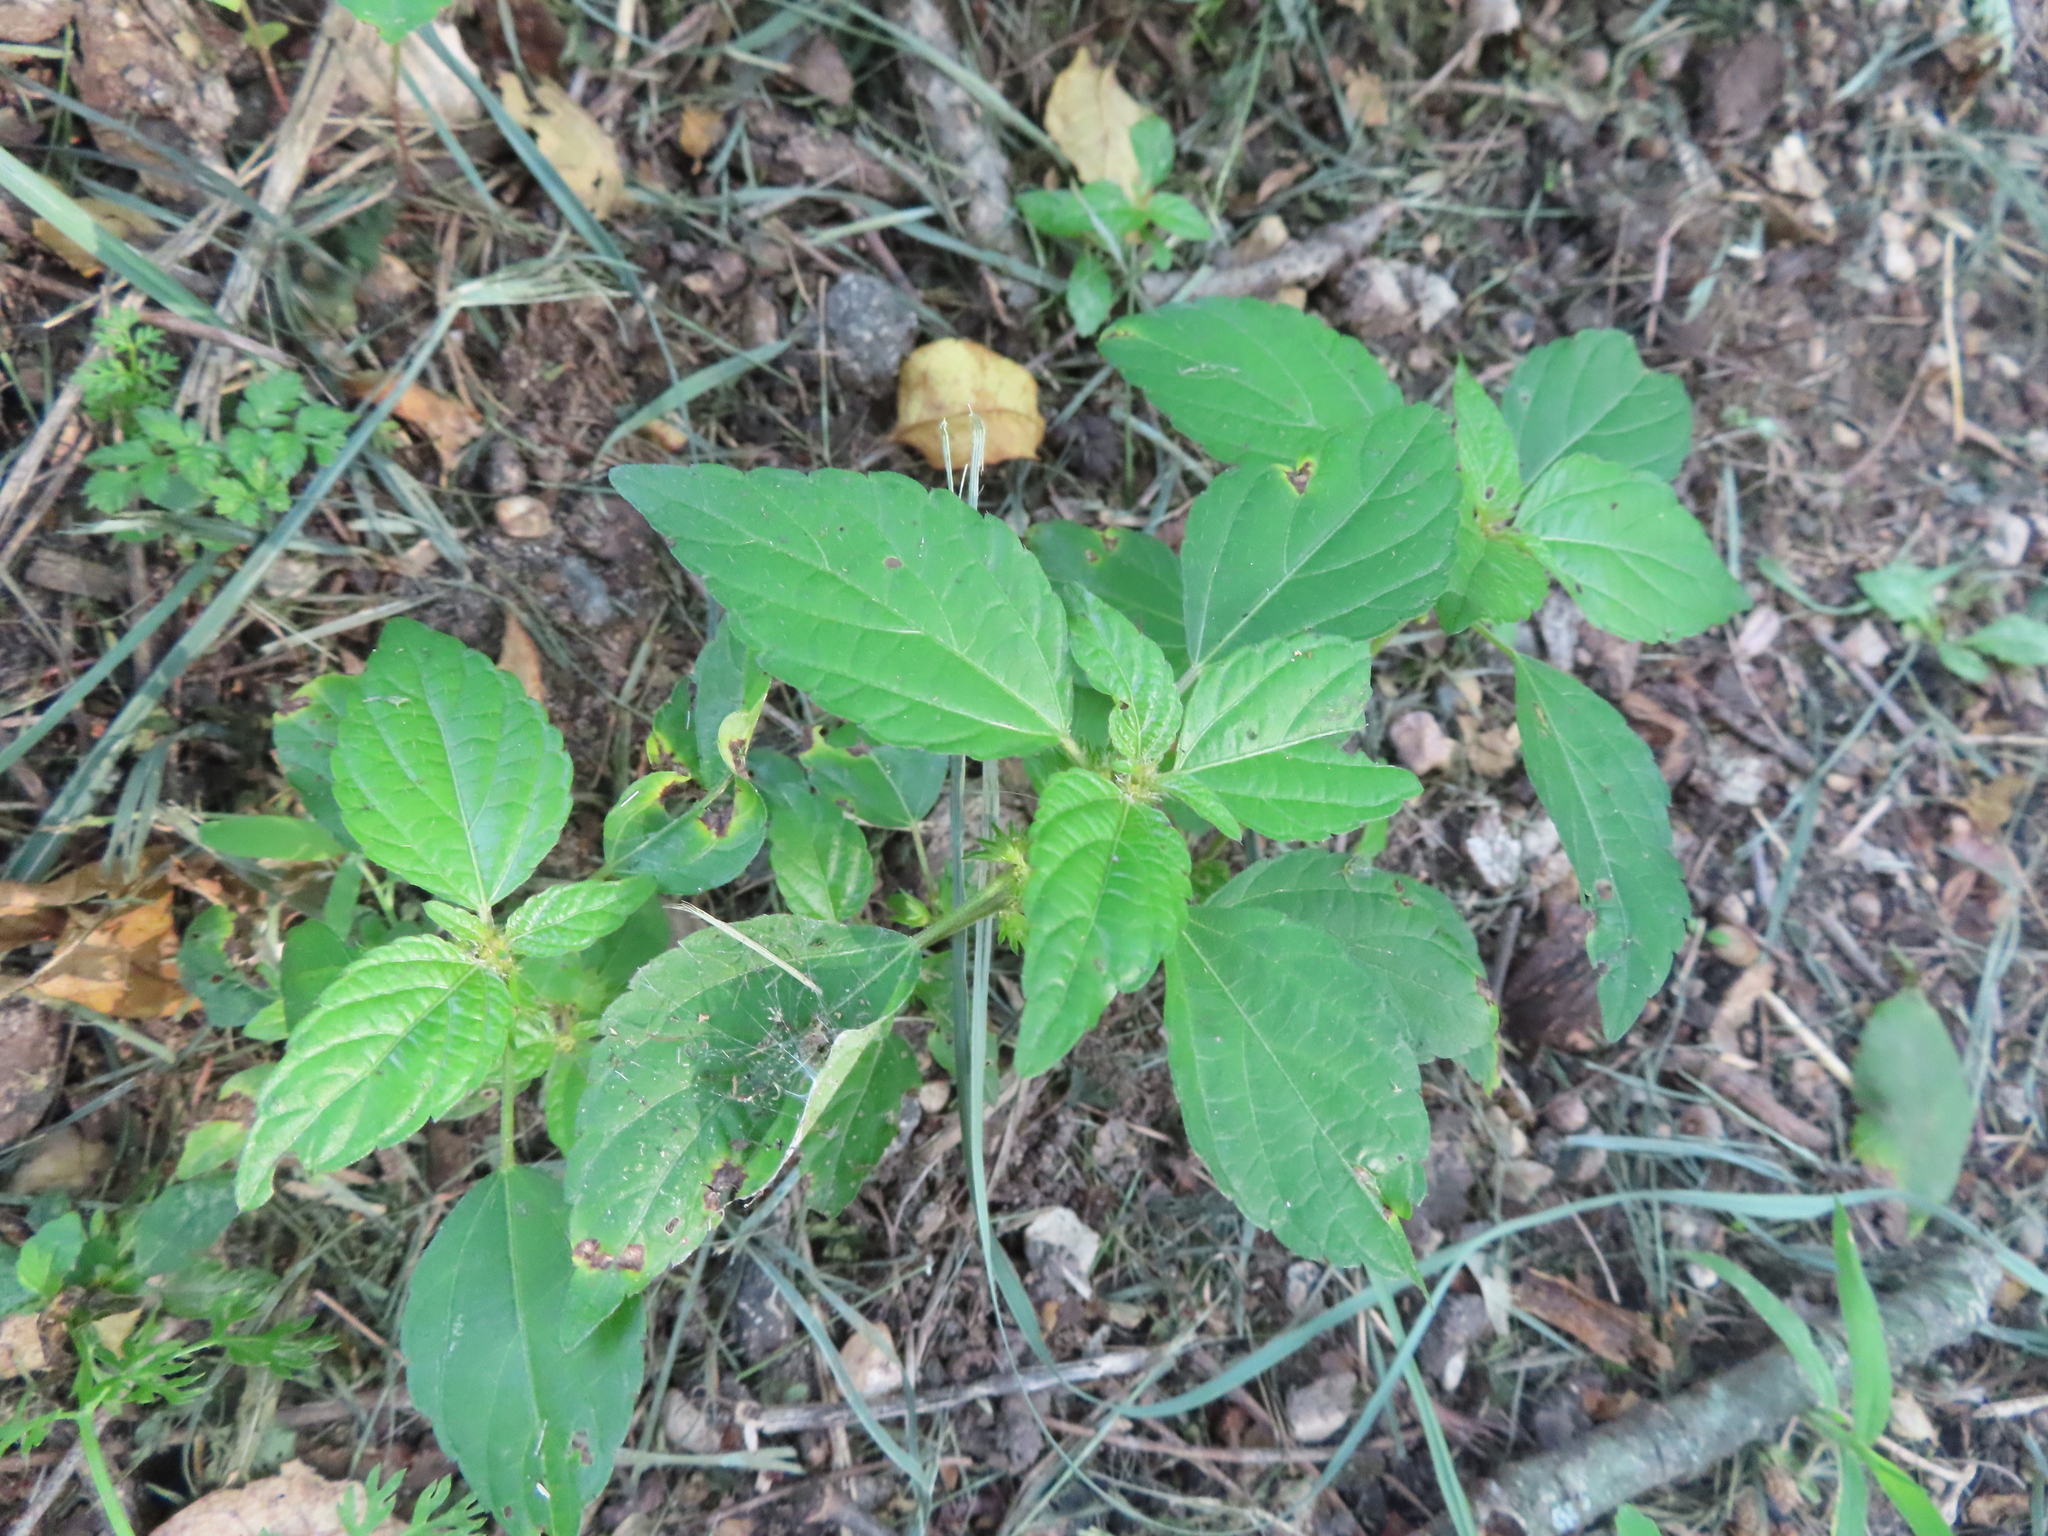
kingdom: Plantae
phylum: Tracheophyta
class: Magnoliopsida
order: Malpighiales
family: Euphorbiaceae
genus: Acalypha
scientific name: Acalypha rhomboidea
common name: Rhombic copperleaf
